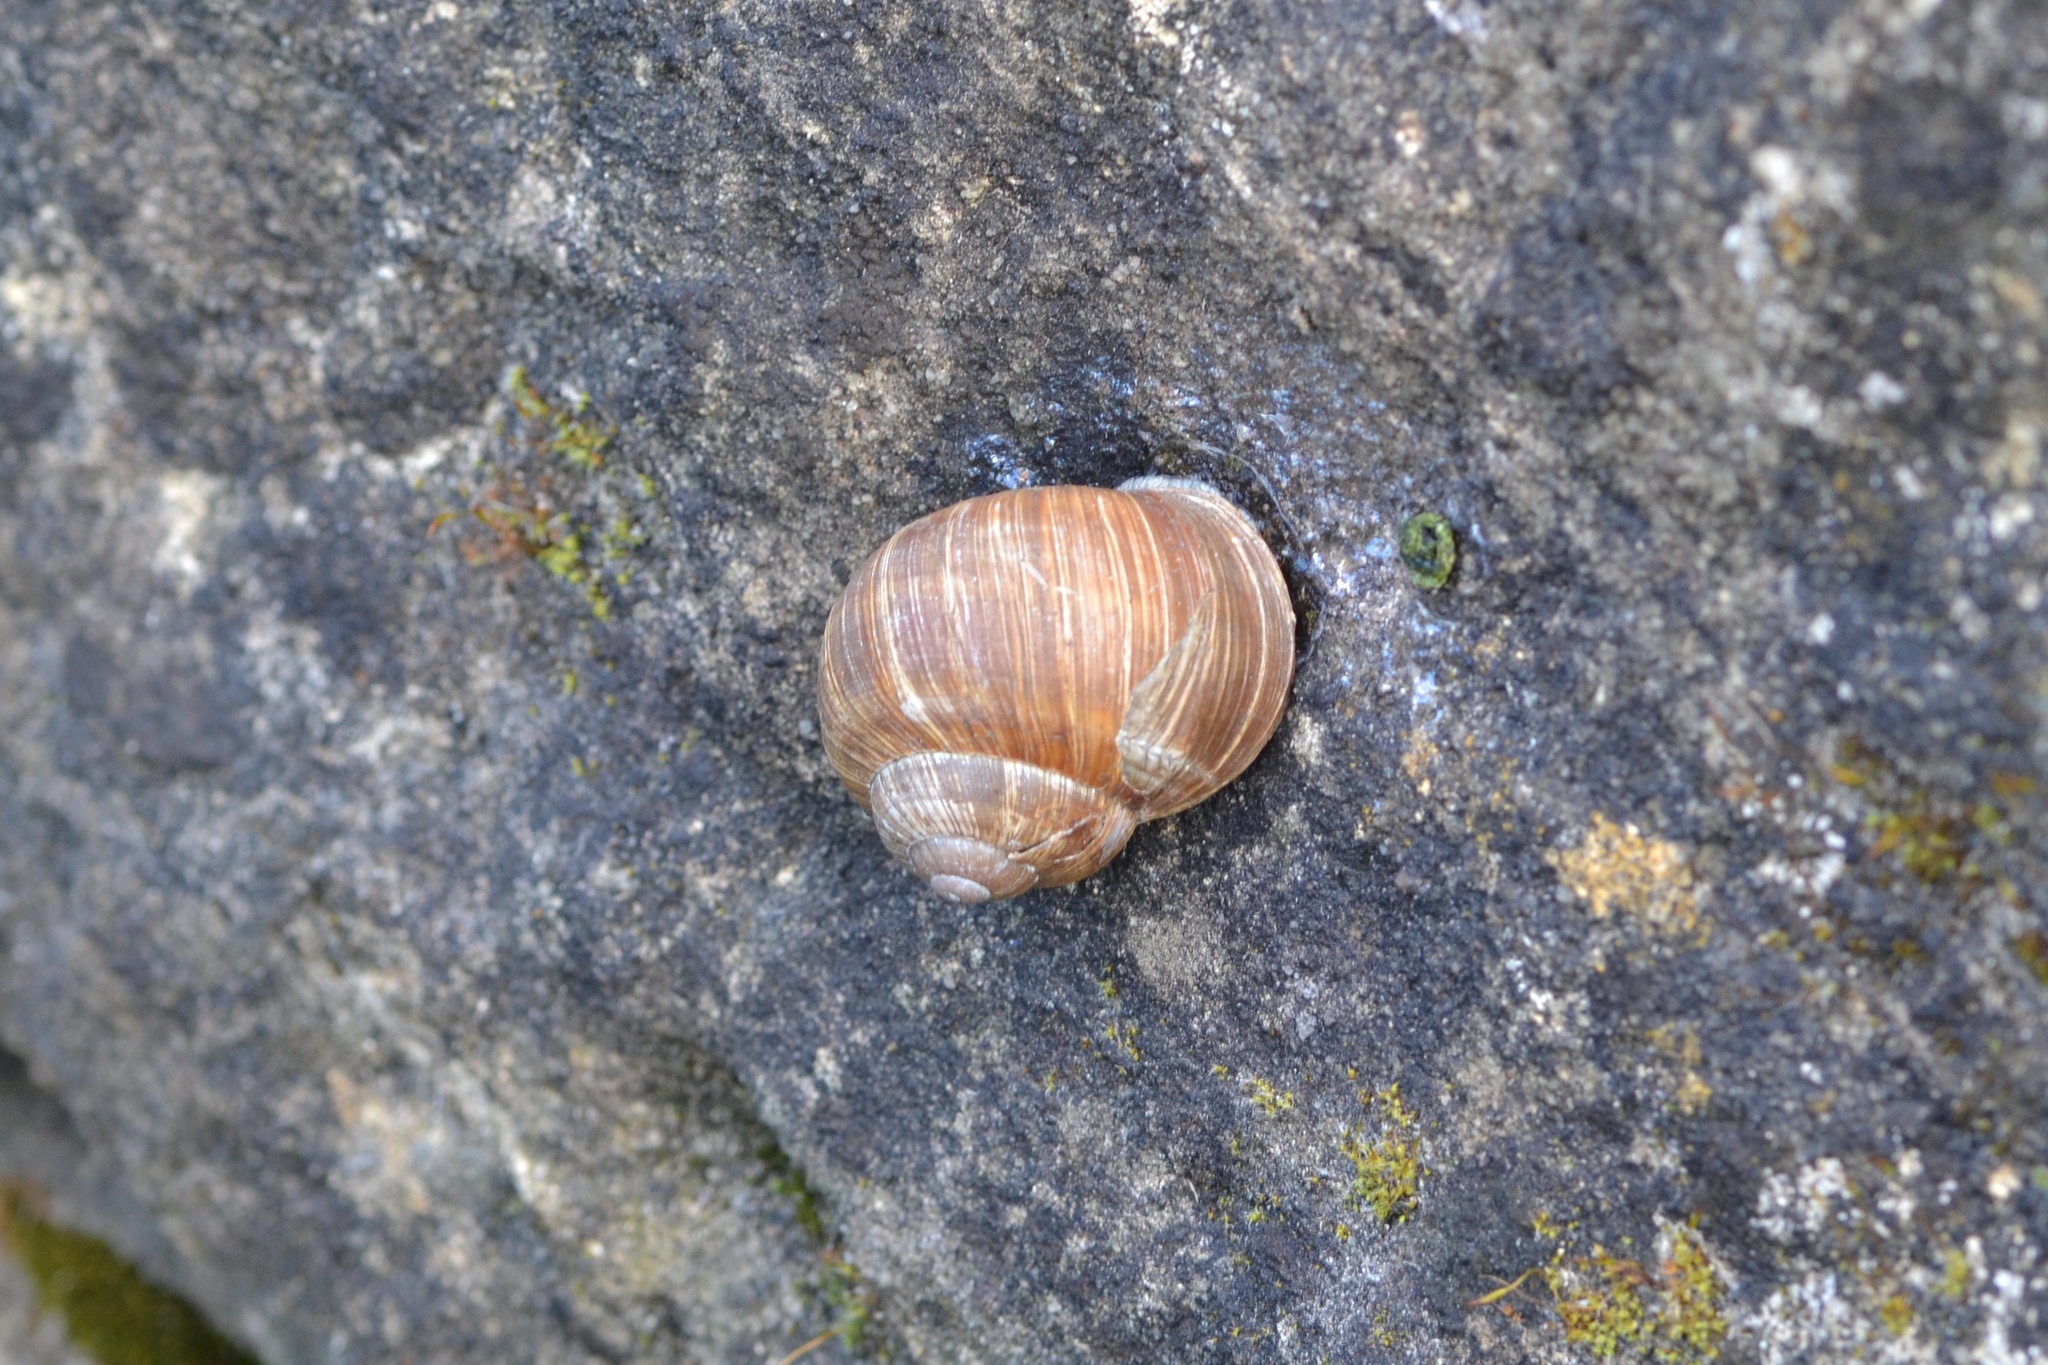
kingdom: Animalia
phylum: Mollusca
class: Gastropoda
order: Stylommatophora
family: Helicidae
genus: Helix
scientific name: Helix pomatia
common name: Roman snail
